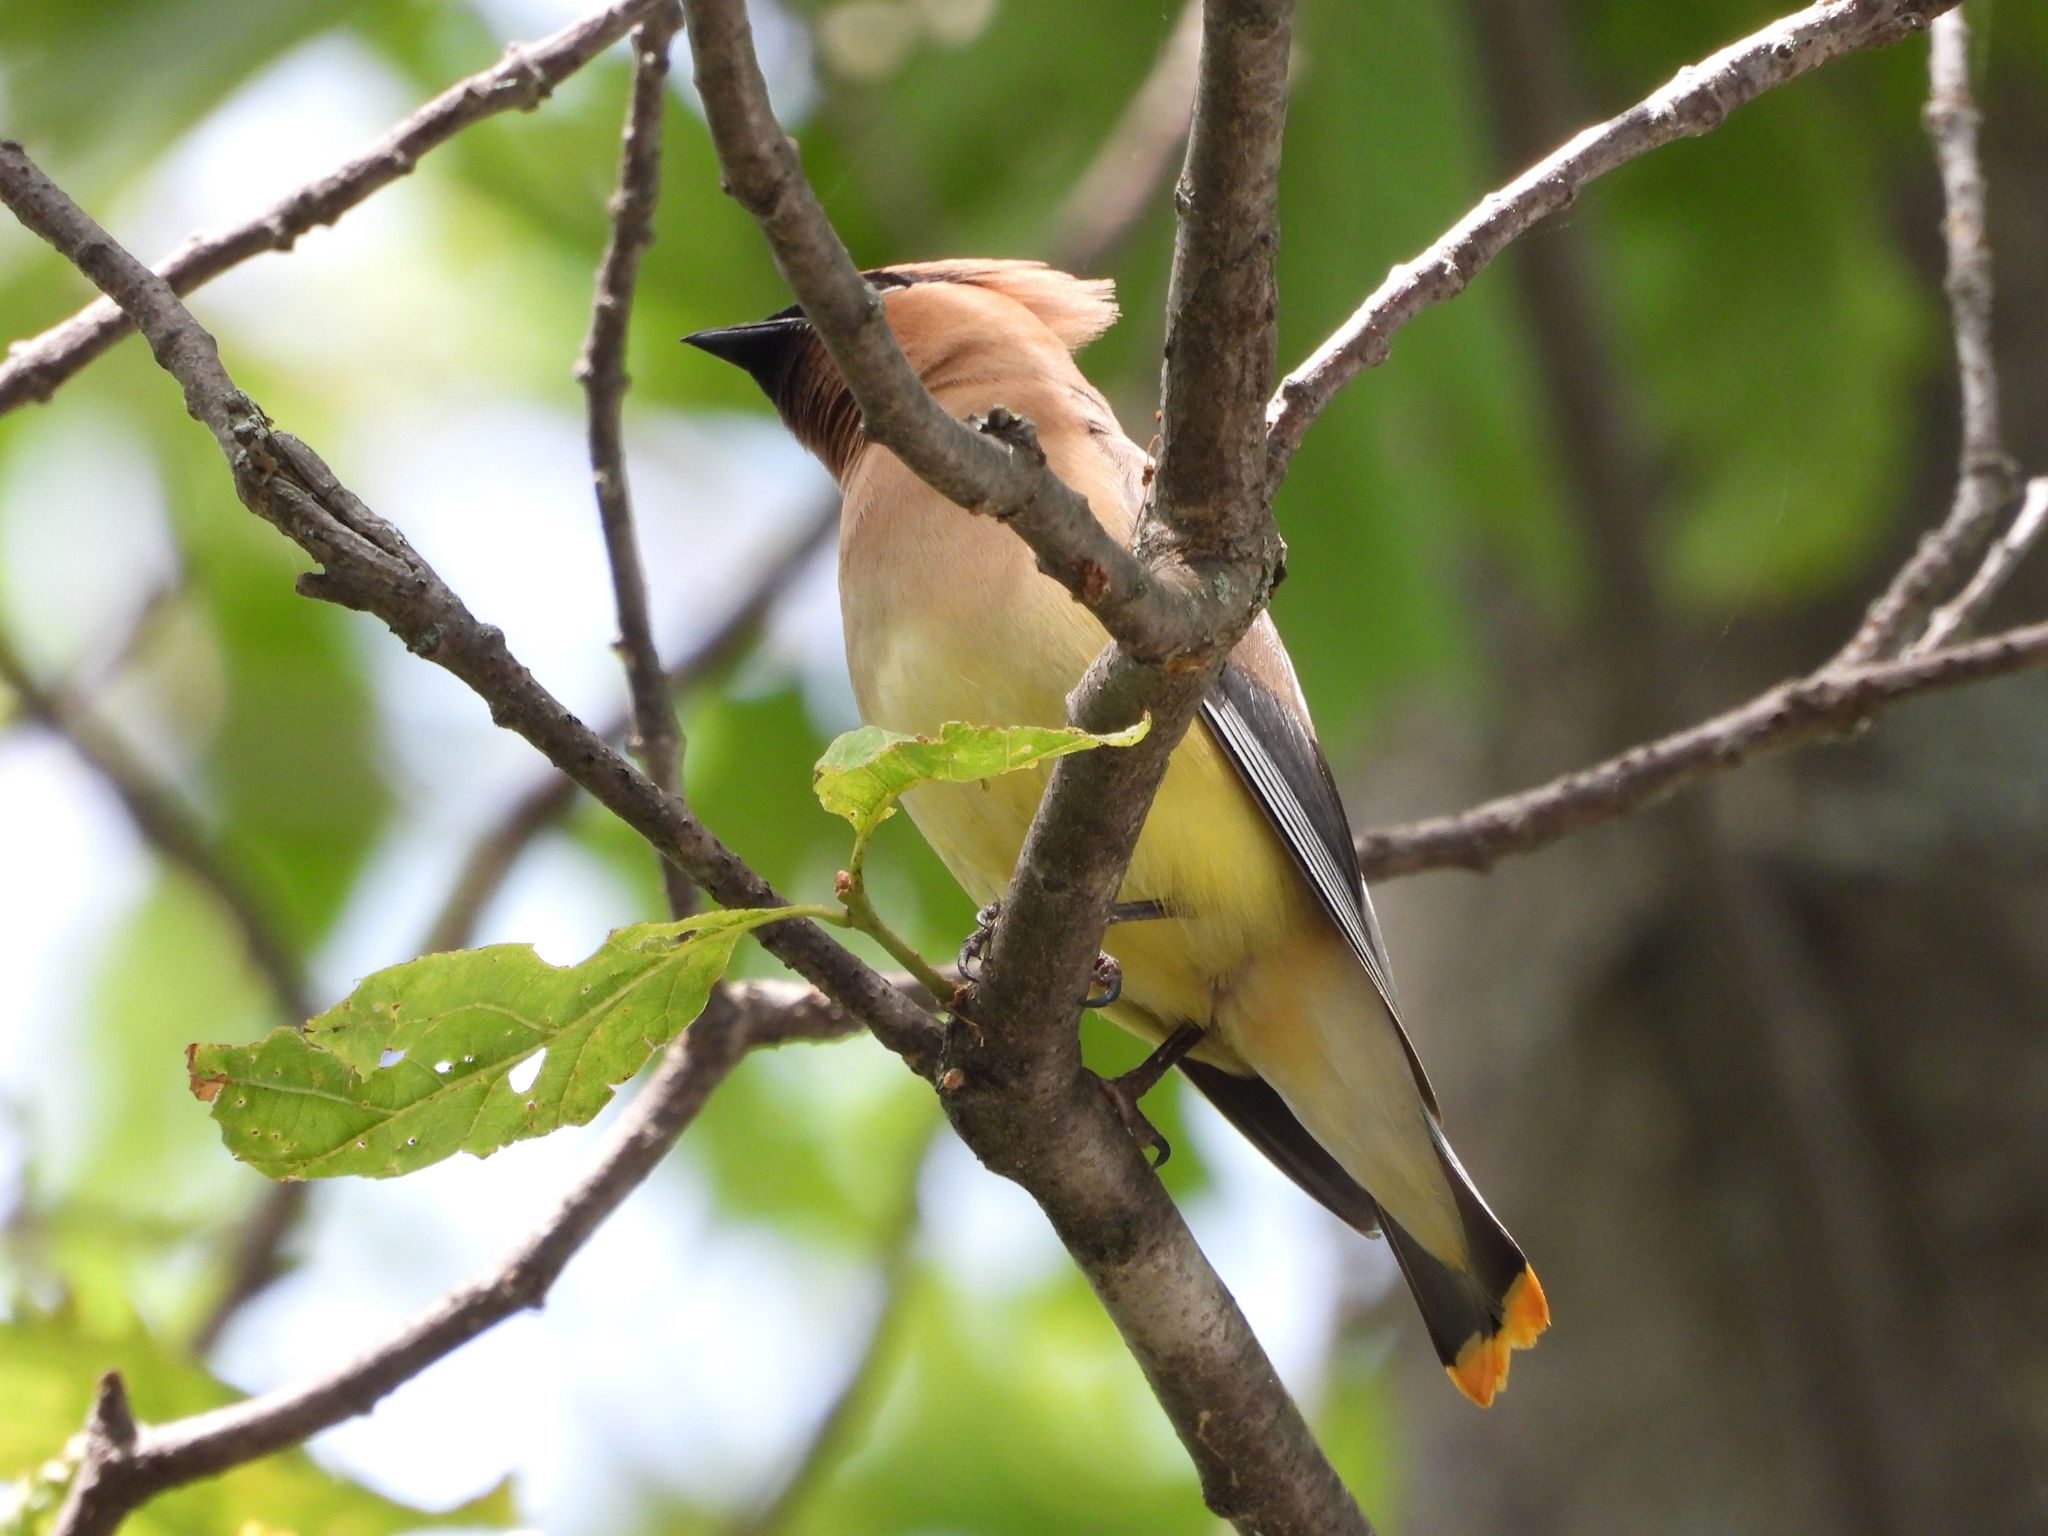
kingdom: Animalia
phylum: Chordata
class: Aves
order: Passeriformes
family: Bombycillidae
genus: Bombycilla
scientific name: Bombycilla cedrorum
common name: Cedar waxwing
